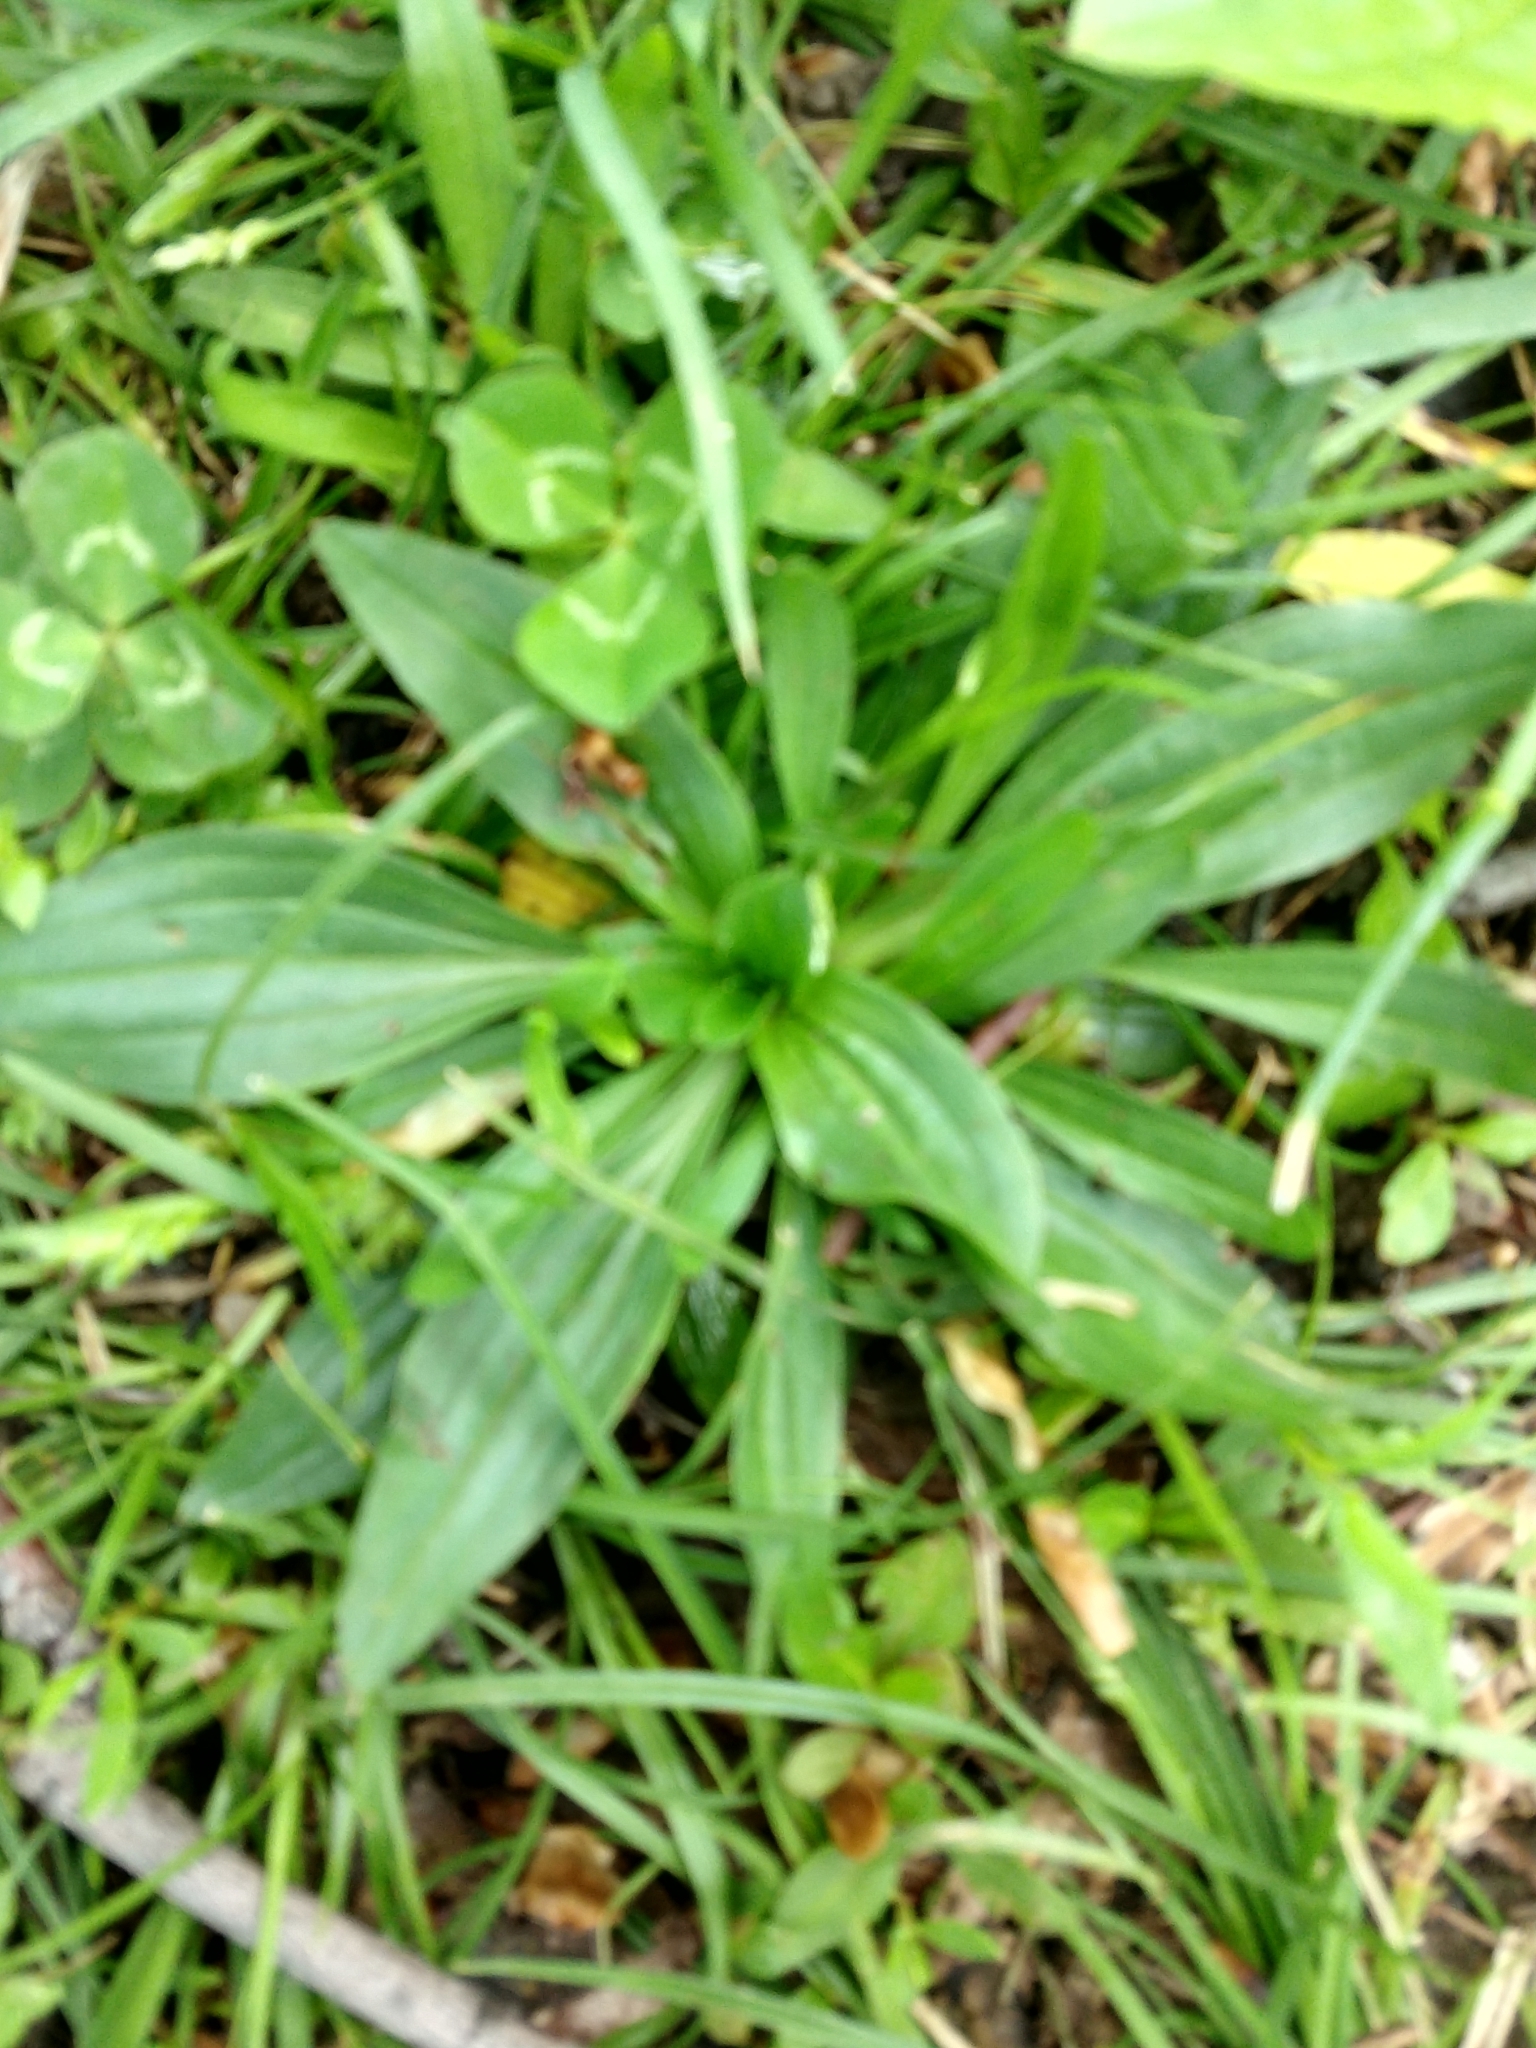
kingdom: Plantae
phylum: Tracheophyta
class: Magnoliopsida
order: Lamiales
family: Plantaginaceae
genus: Plantago
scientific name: Plantago lanceolata
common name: Ribwort plantain
